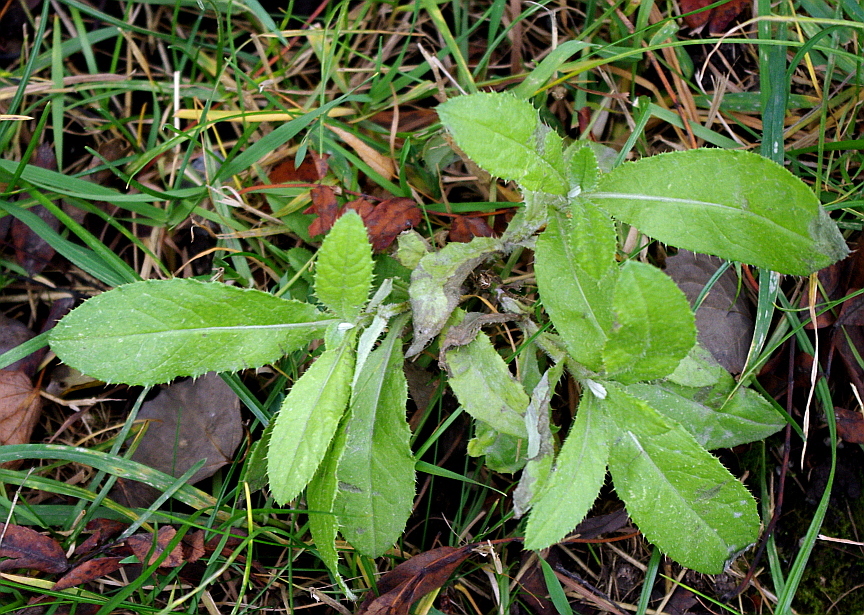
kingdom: Plantae
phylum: Tracheophyta
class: Magnoliopsida
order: Asterales
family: Asteraceae
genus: Cirsium
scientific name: Cirsium arvense
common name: Creeping thistle
